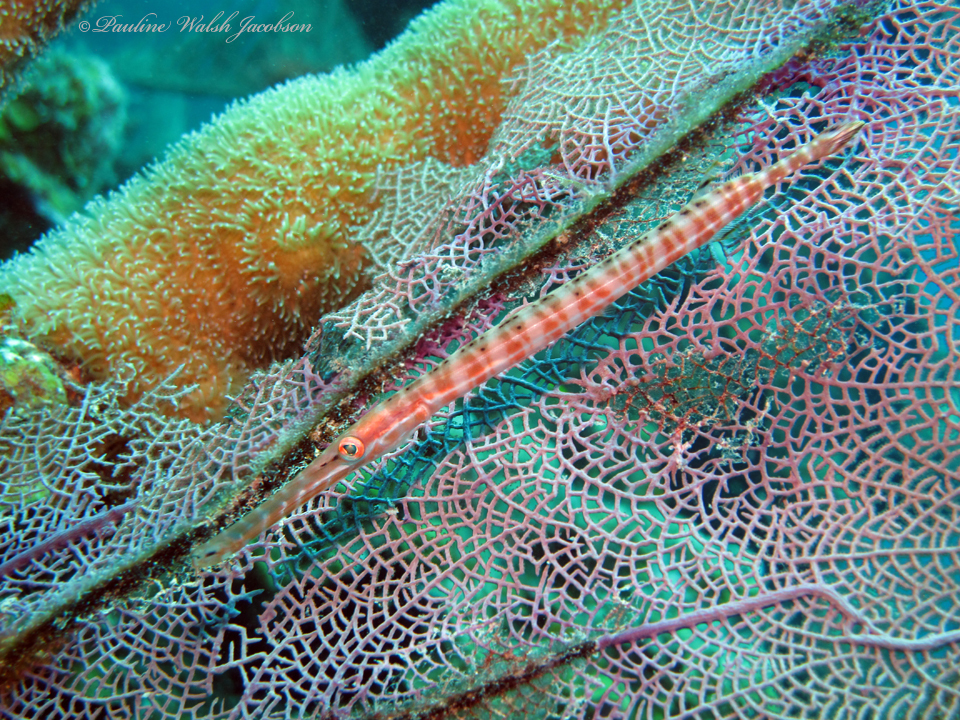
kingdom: Animalia
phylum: Chordata
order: Syngnathiformes
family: Aulostomidae
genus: Aulostomus
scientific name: Aulostomus maculatus
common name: West atlantic trumpetfish
